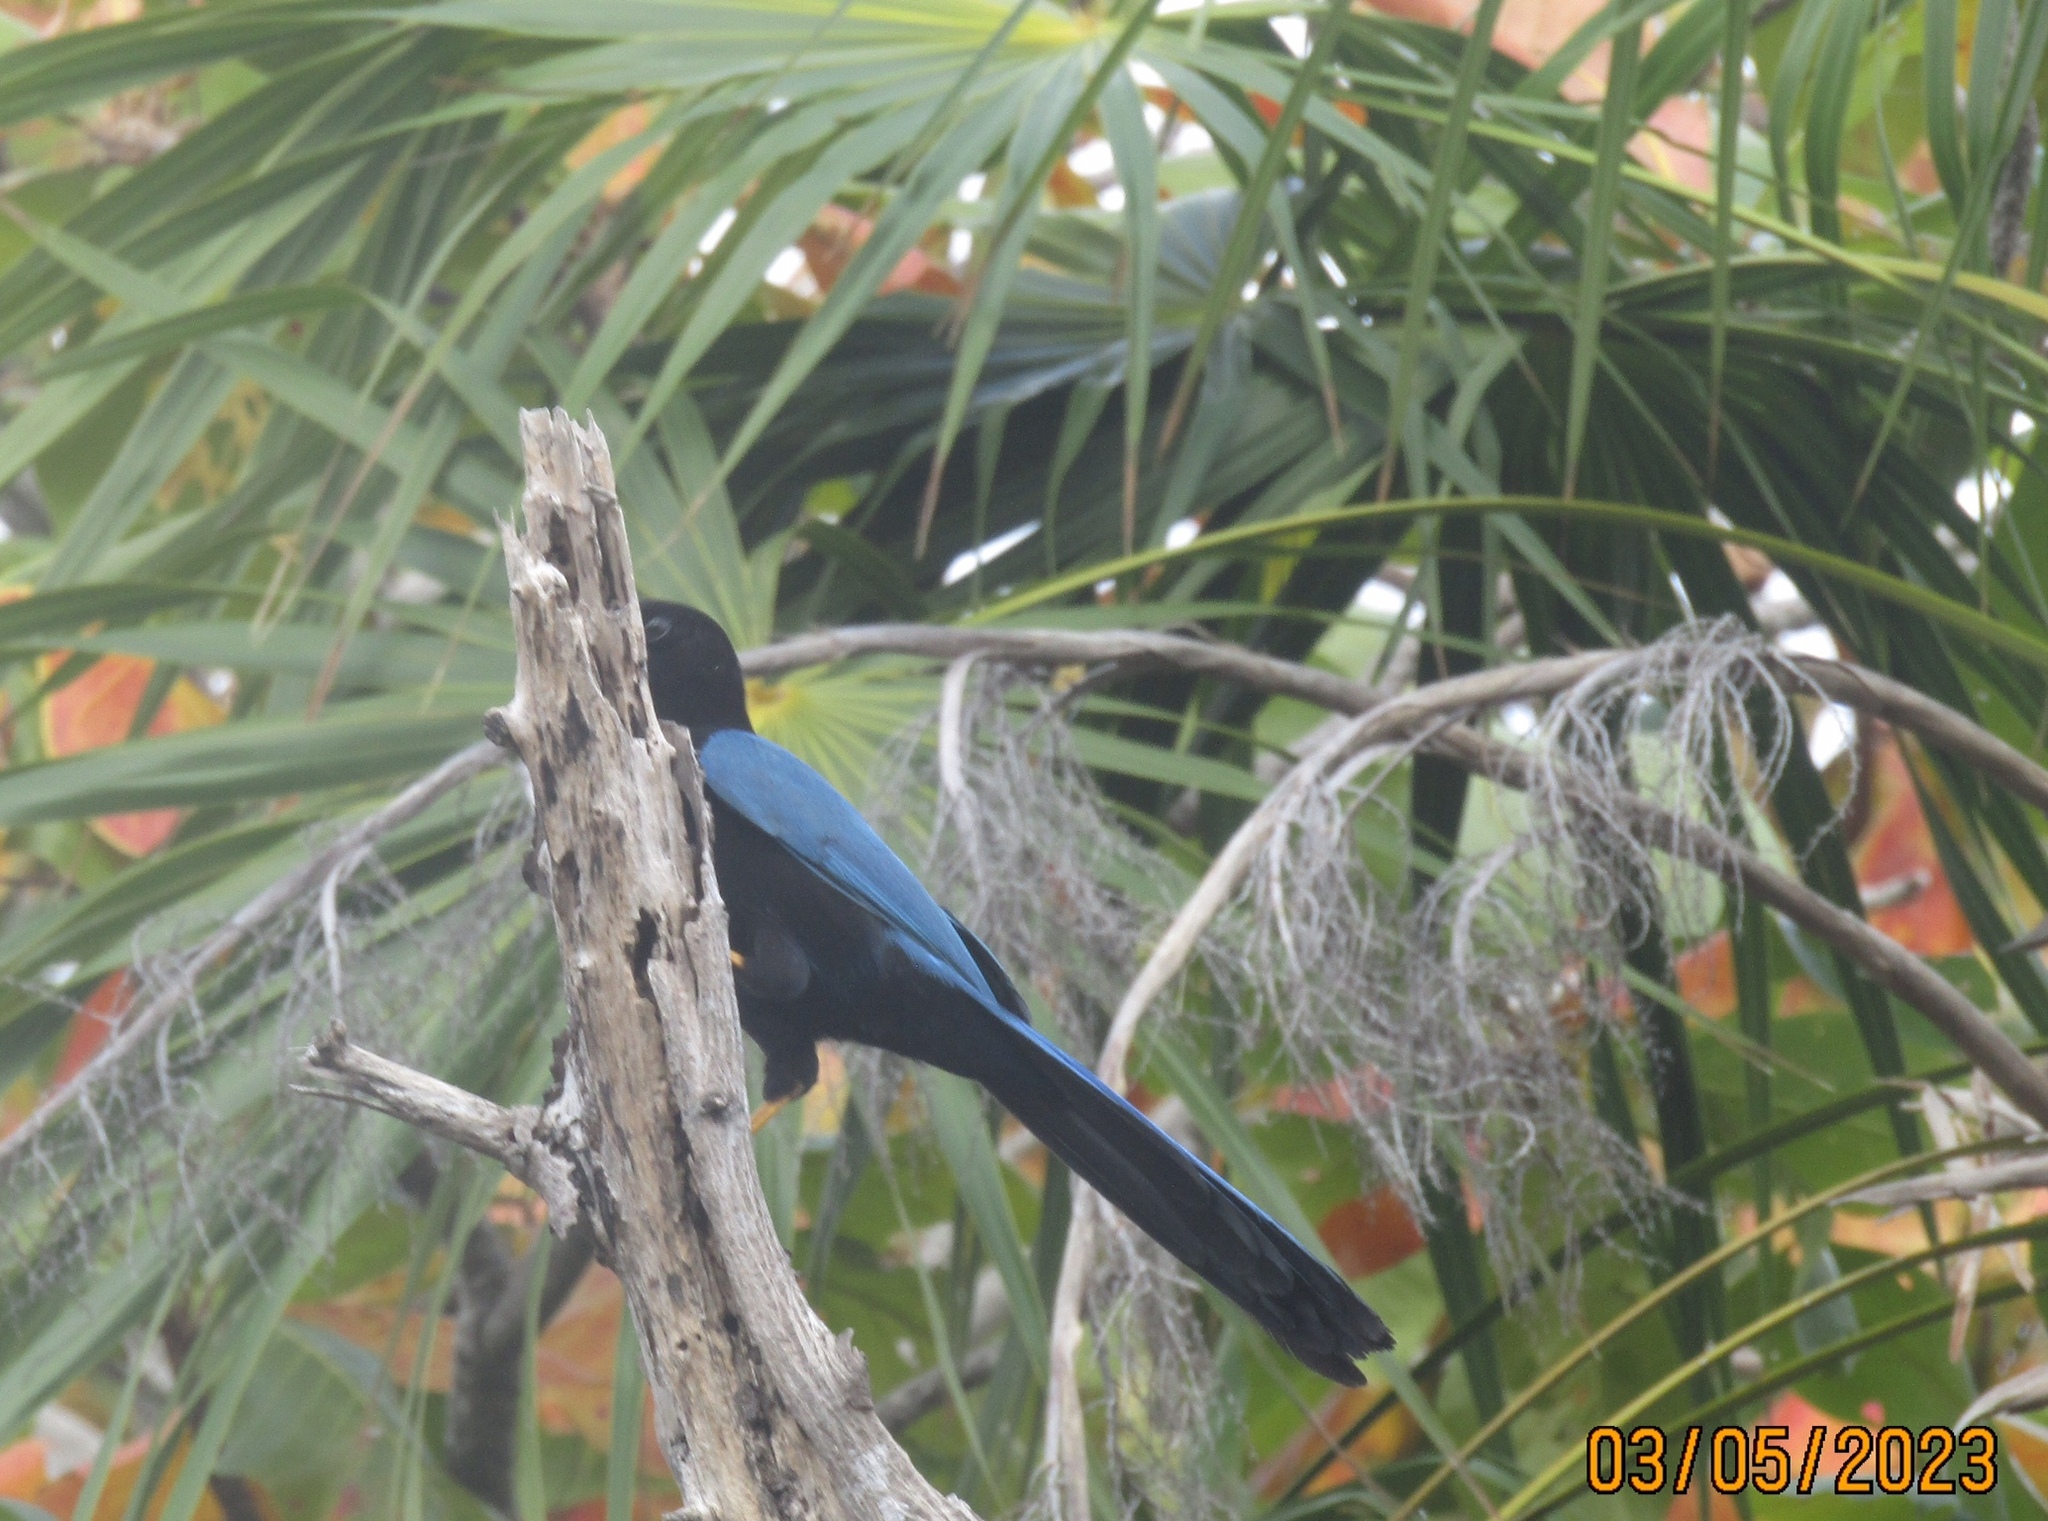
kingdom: Animalia
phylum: Chordata
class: Aves
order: Passeriformes
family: Corvidae
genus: Cyanocorax
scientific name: Cyanocorax yucatanicus
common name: Yucatan jay
